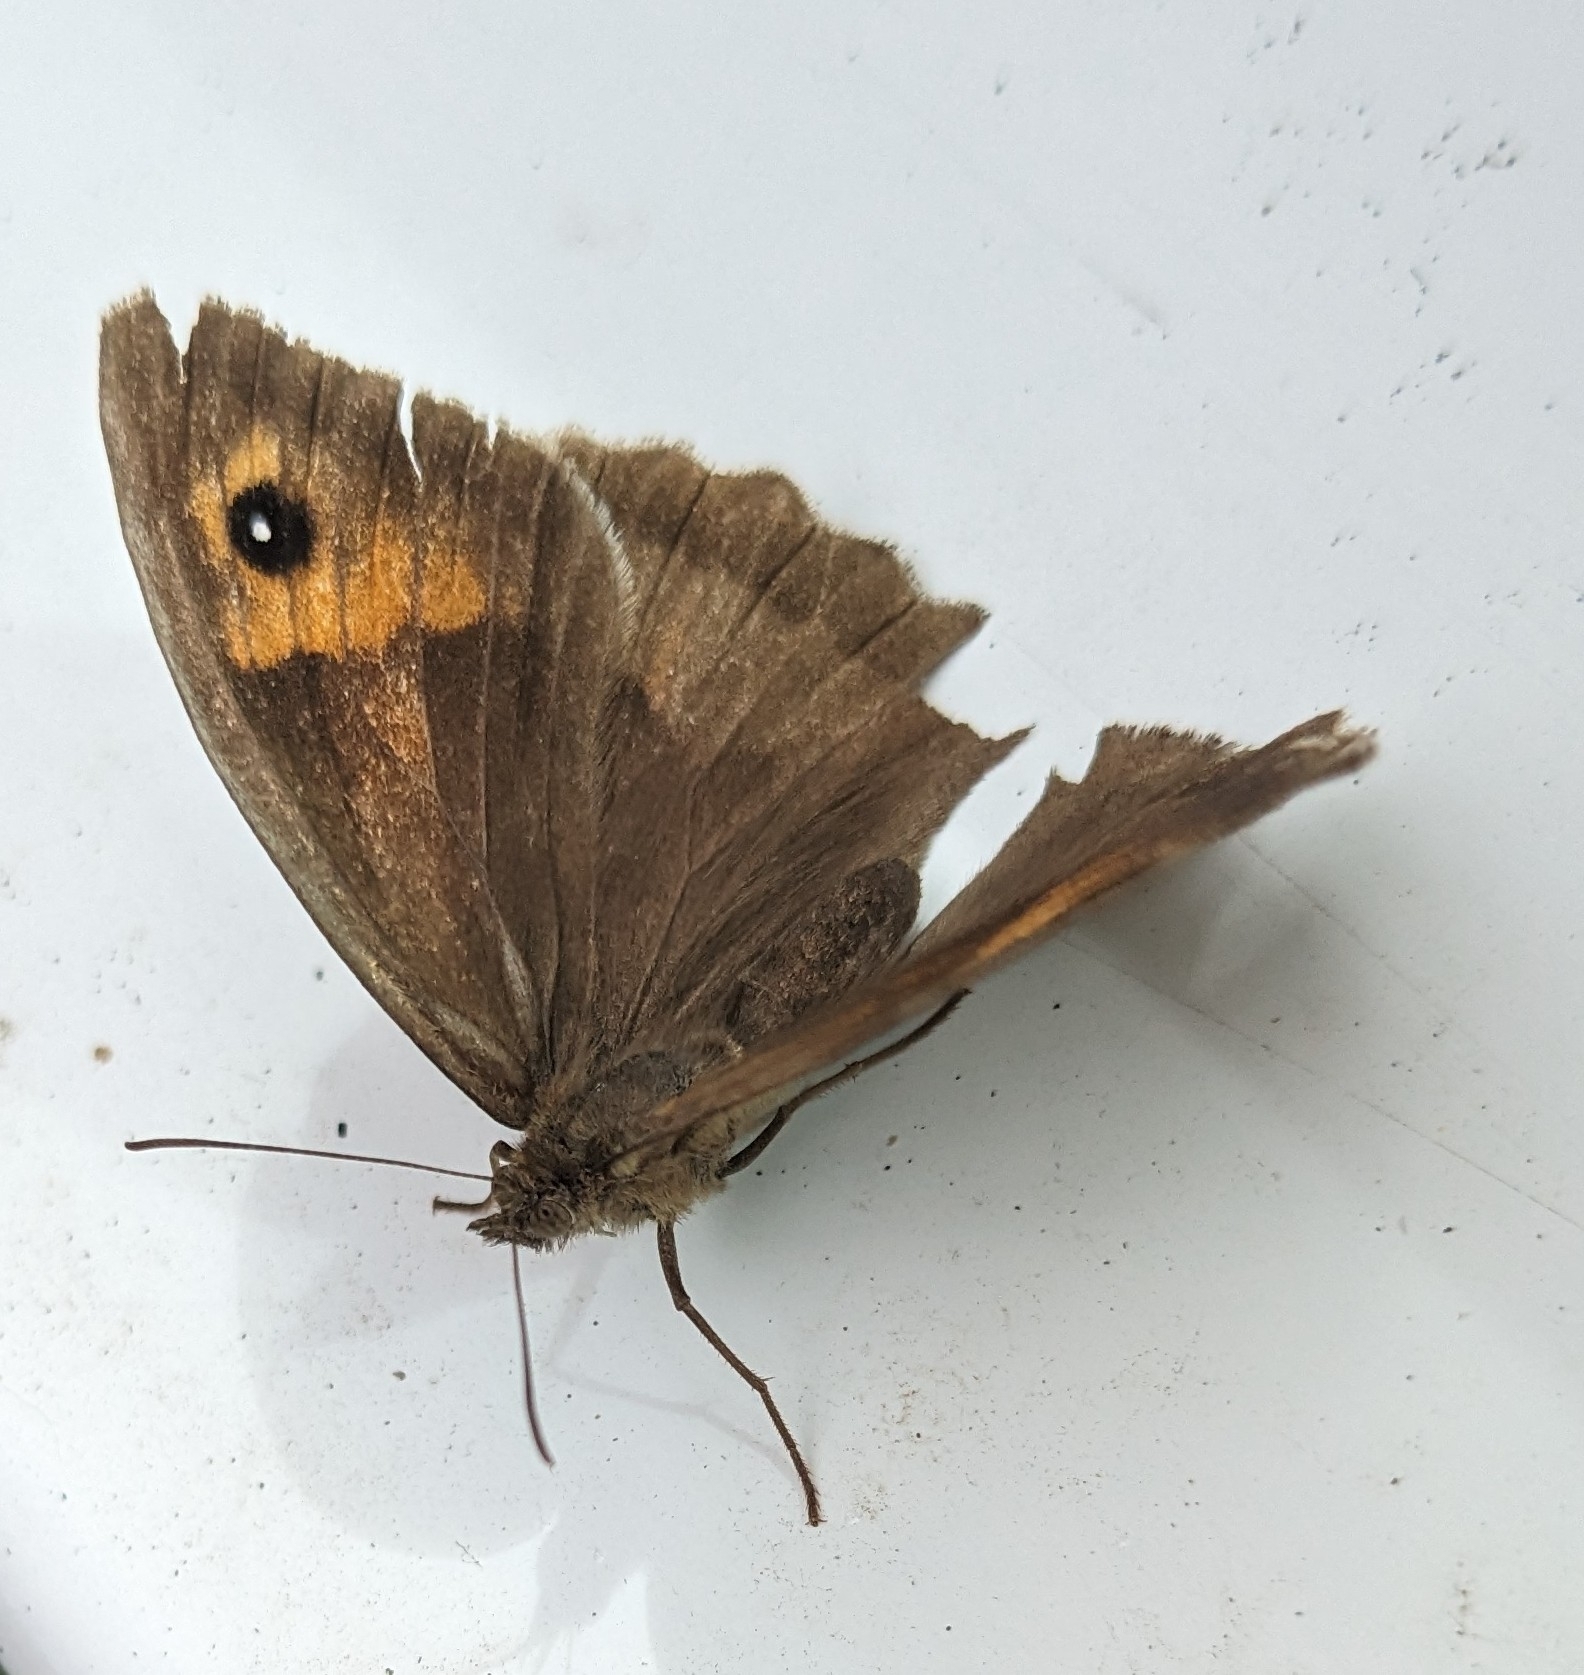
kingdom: Animalia
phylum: Arthropoda
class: Insecta
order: Lepidoptera
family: Nymphalidae
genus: Maniola
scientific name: Maniola jurtina
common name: Meadow brown
